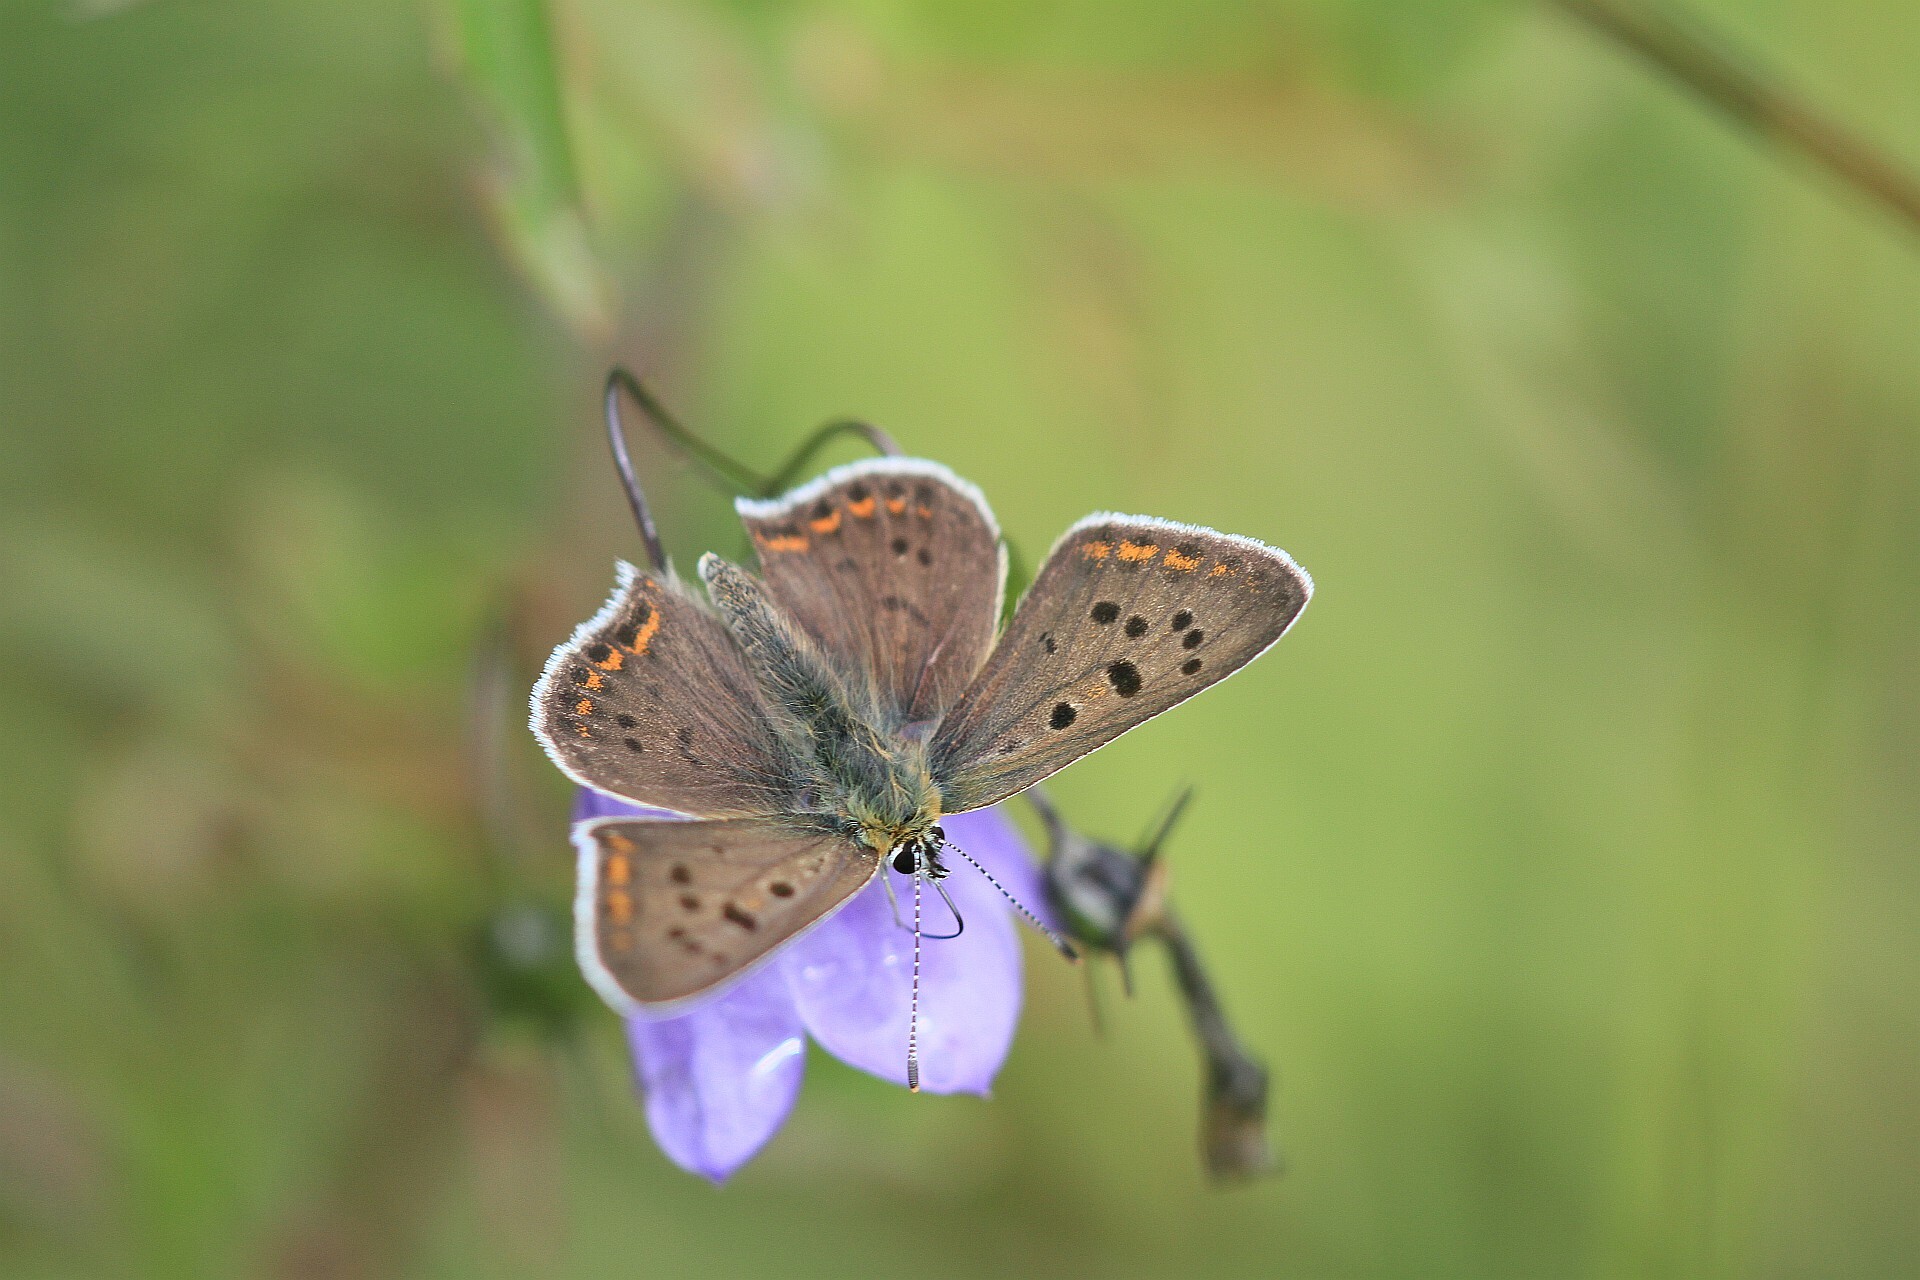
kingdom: Animalia
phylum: Arthropoda
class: Insecta
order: Lepidoptera
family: Lycaenidae
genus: Loweia
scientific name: Loweia tityrus
